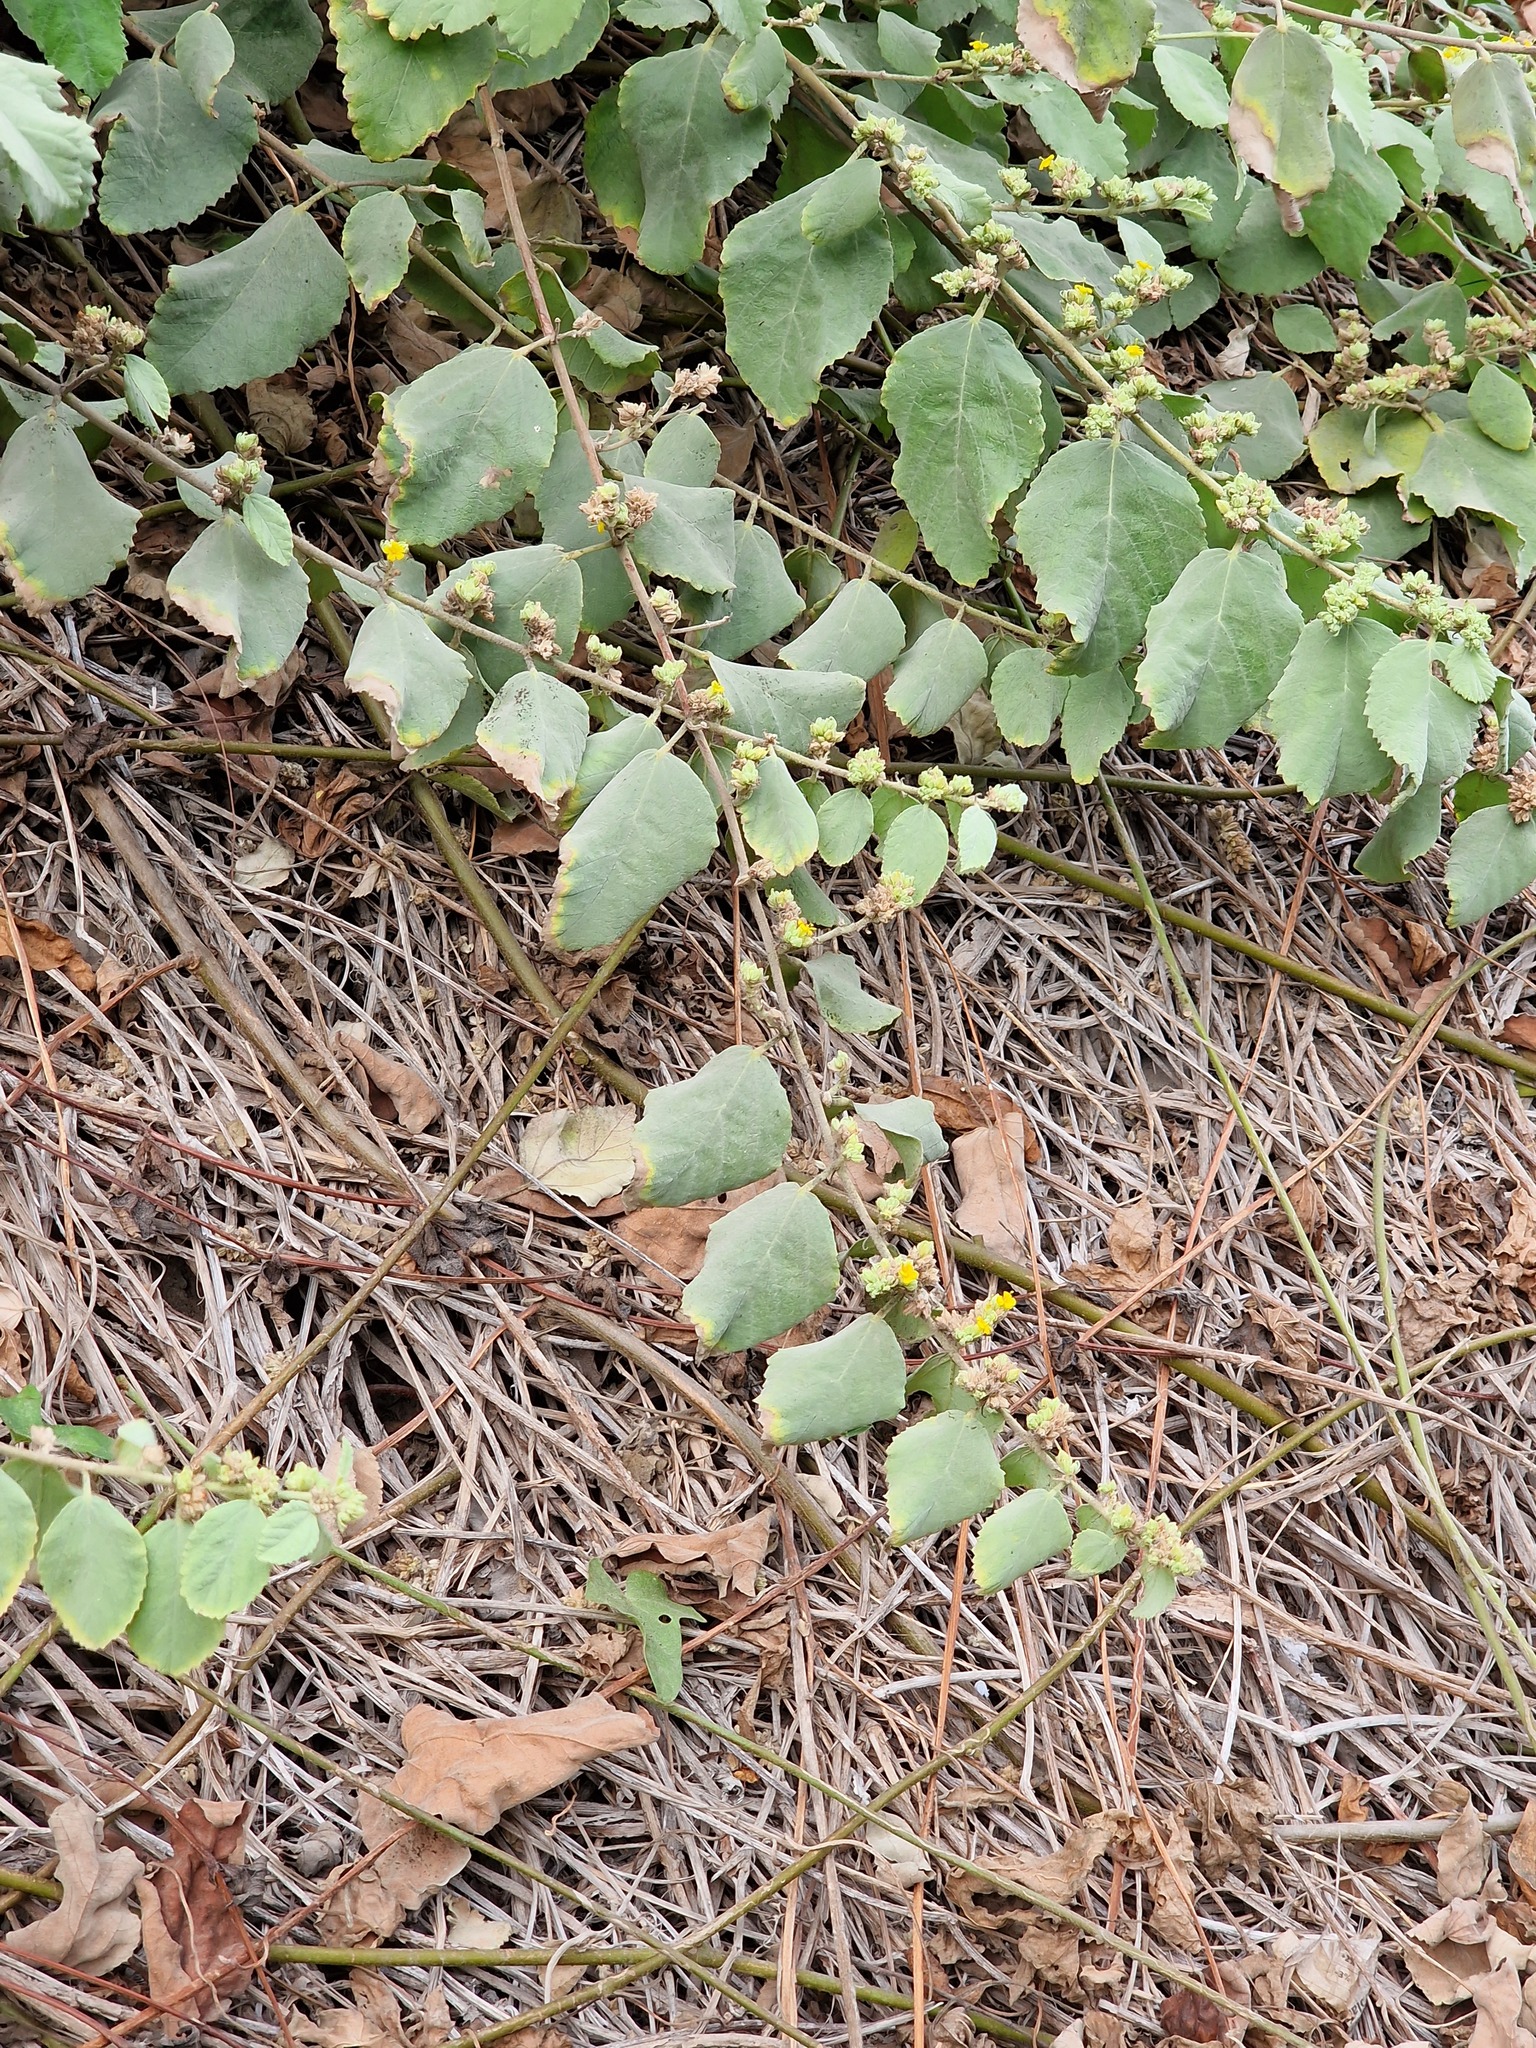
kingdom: Plantae
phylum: Tracheophyta
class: Magnoliopsida
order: Malvales
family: Malvaceae
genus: Waltheria
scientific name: Waltheria ovata
